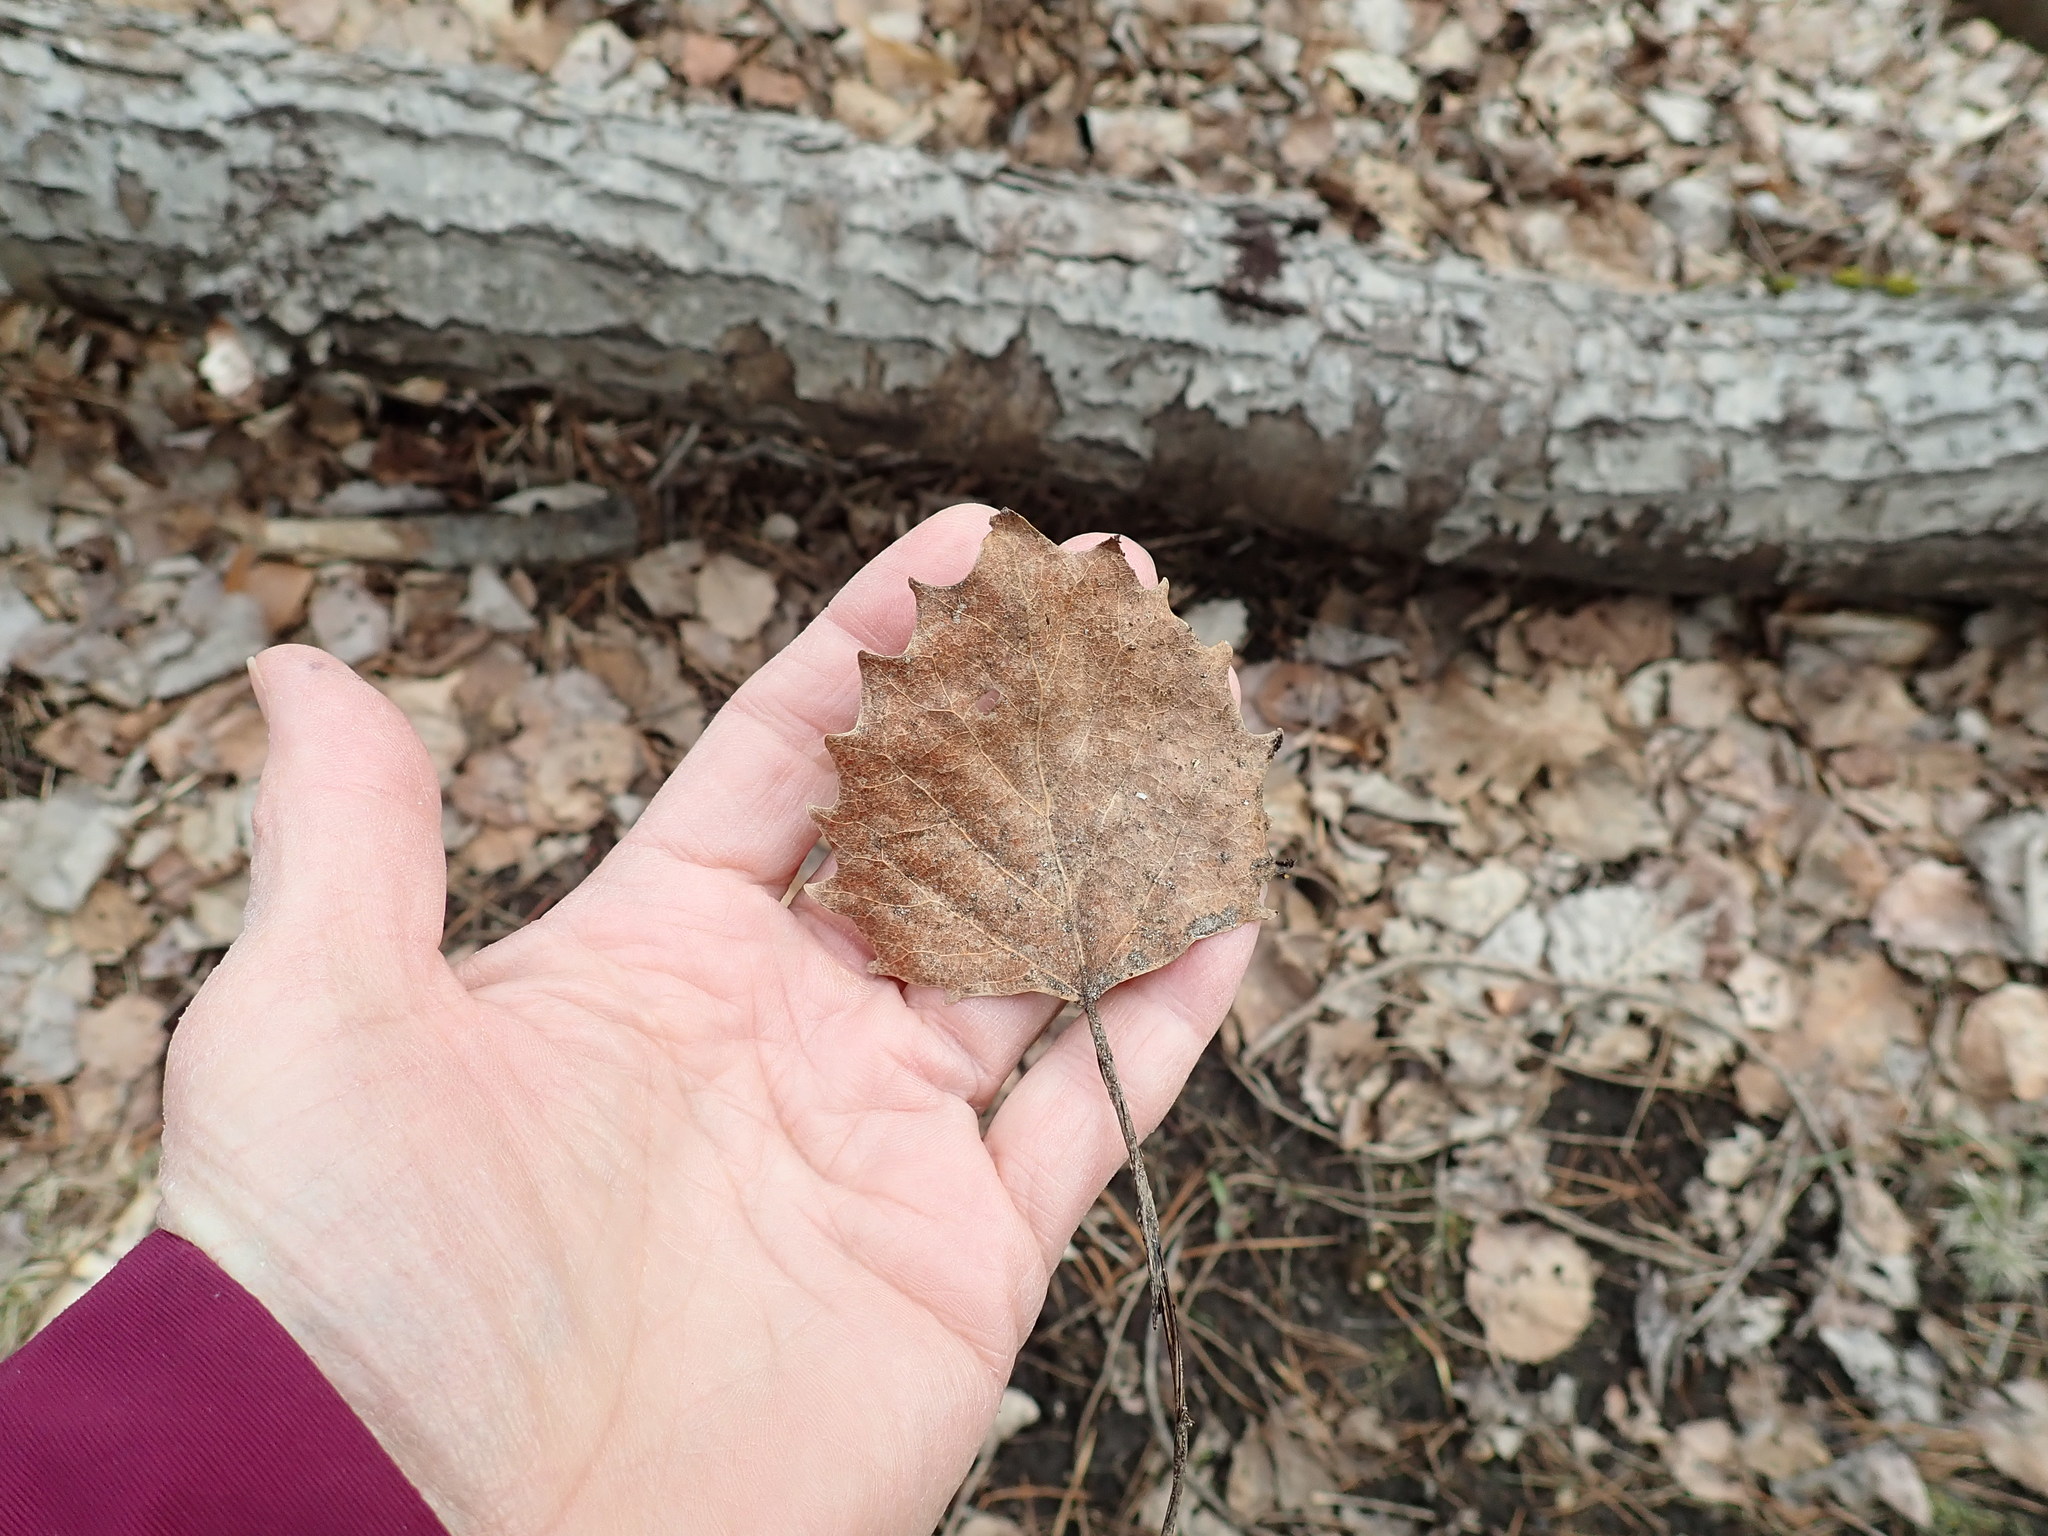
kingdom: Plantae
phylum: Tracheophyta
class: Magnoliopsida
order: Malpighiales
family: Salicaceae
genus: Populus
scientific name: Populus grandidentata
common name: Bigtooth aspen
